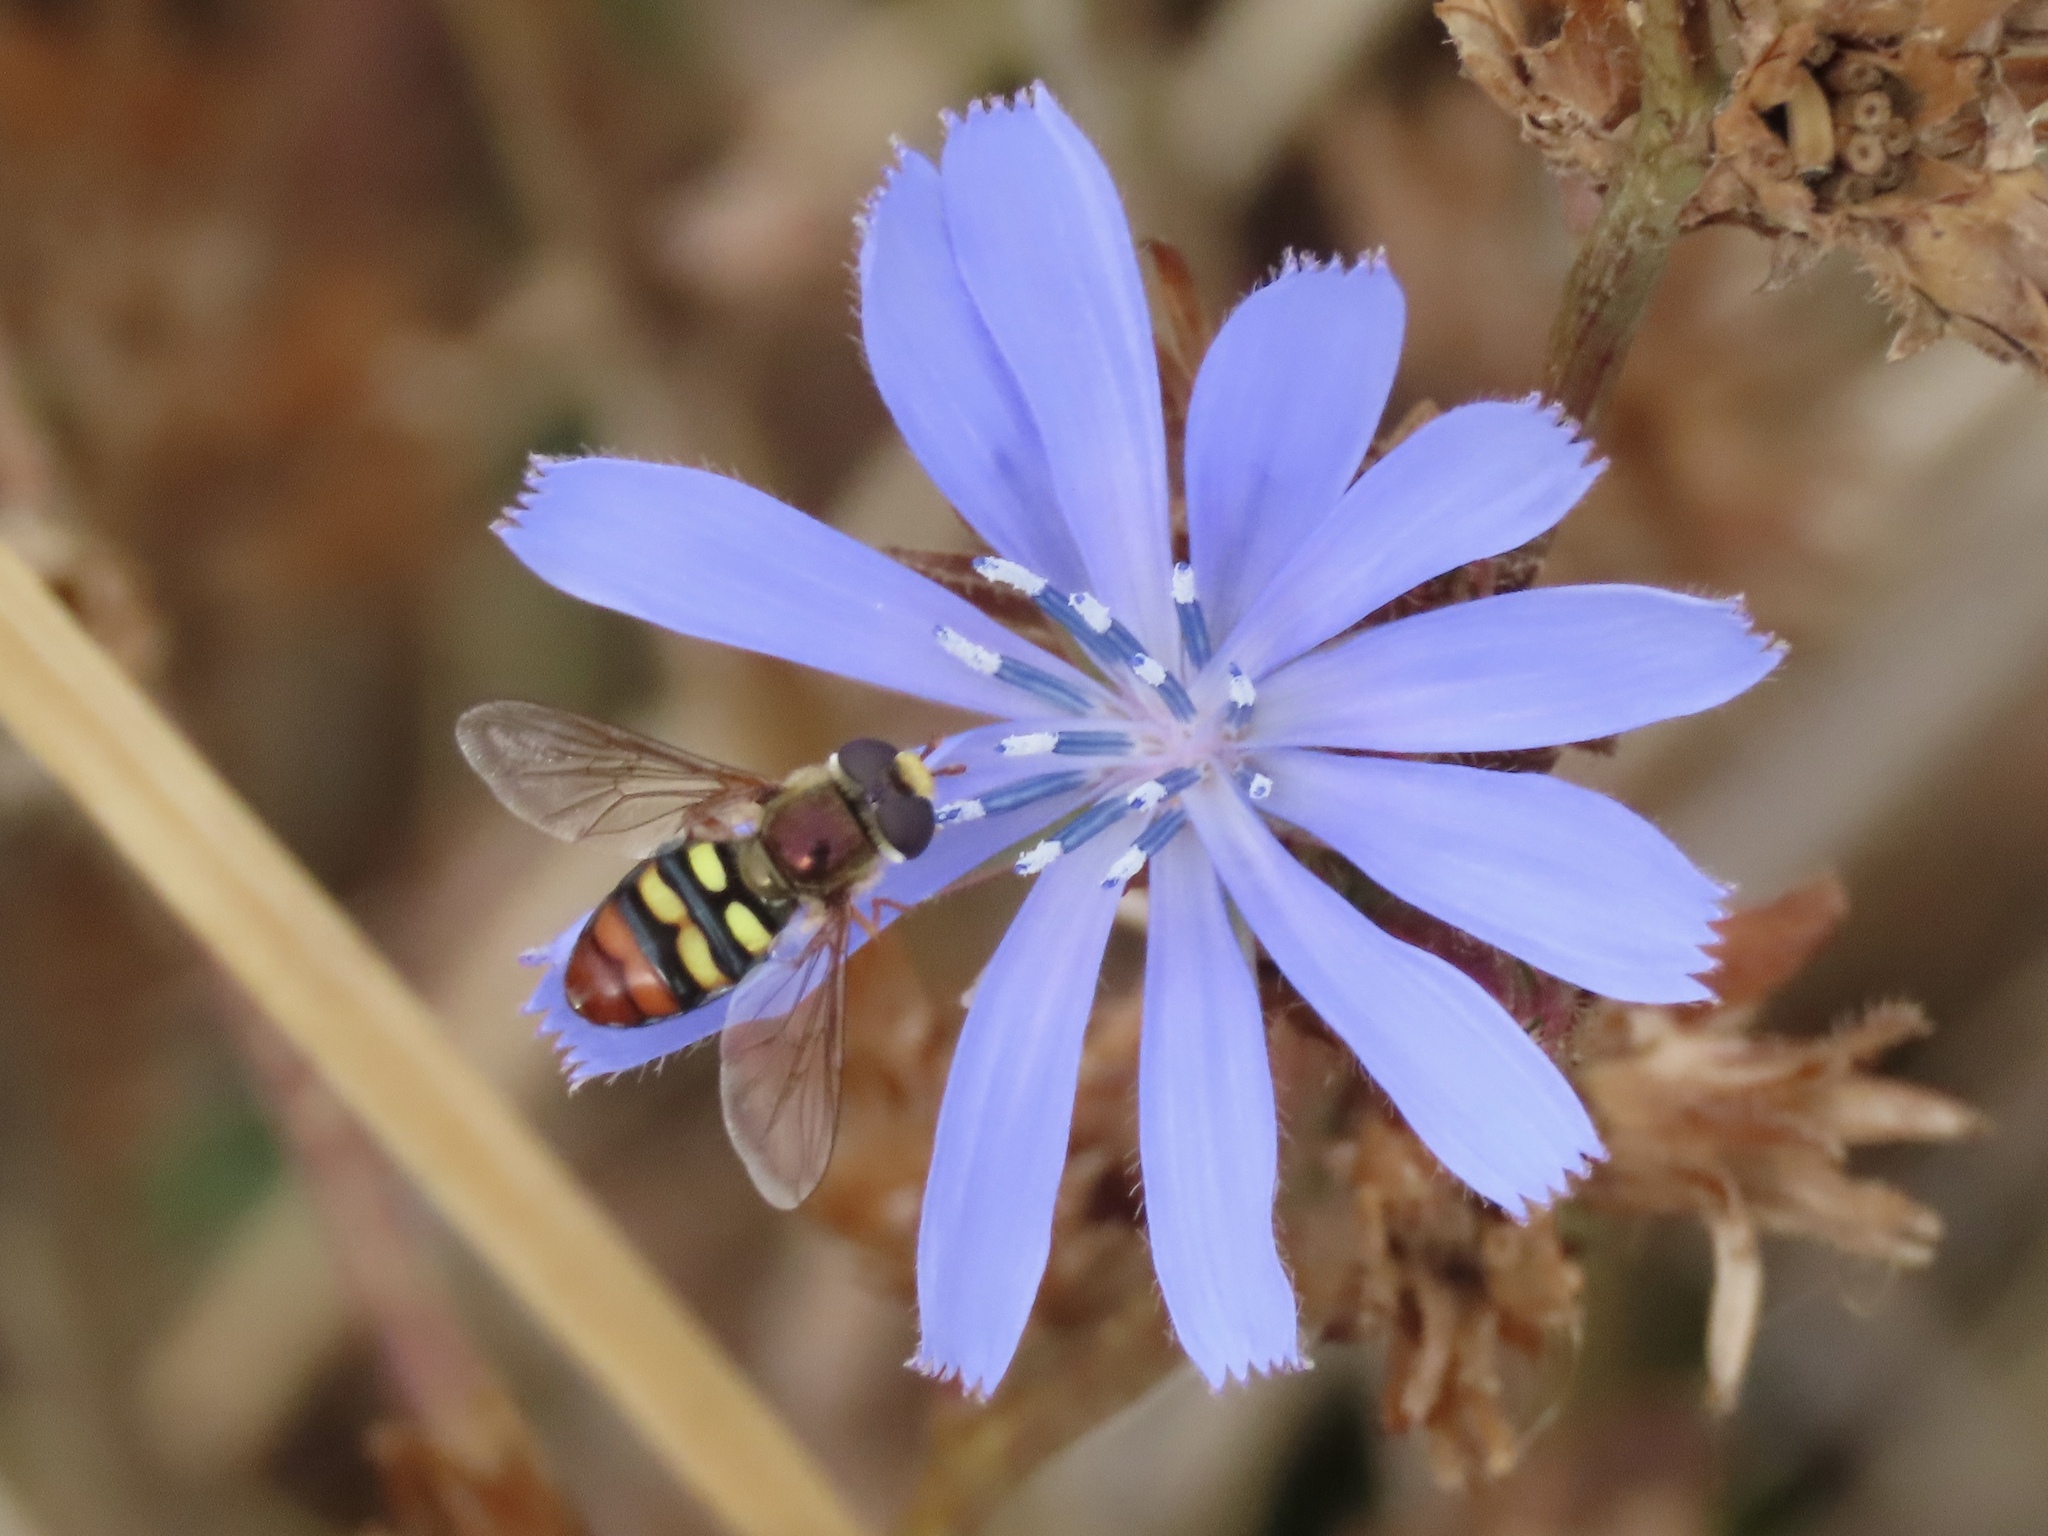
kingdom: Animalia
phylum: Arthropoda
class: Insecta
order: Diptera
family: Syrphidae
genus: Eupeodes
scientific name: Eupeodes snowi
